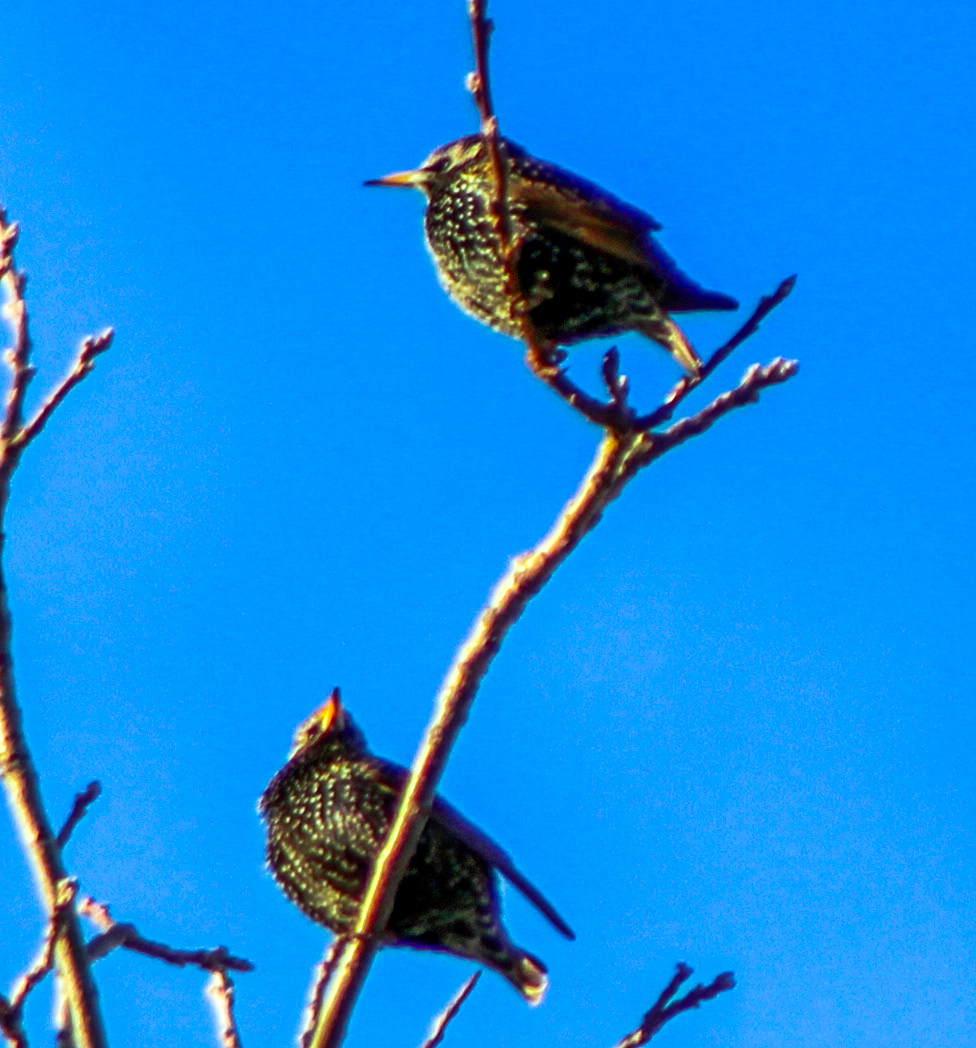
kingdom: Animalia
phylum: Chordata
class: Aves
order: Passeriformes
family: Sturnidae
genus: Sturnus
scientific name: Sturnus vulgaris
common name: Common starling
